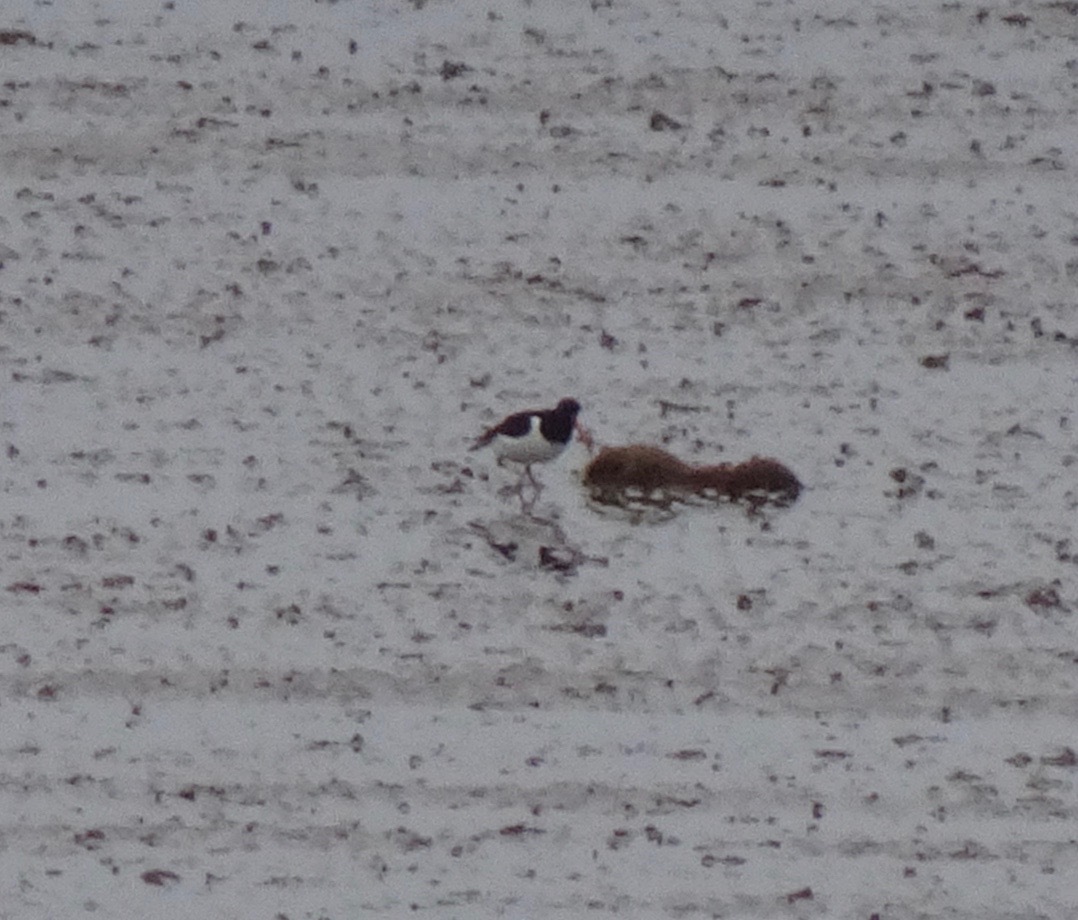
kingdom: Animalia
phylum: Chordata
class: Aves
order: Charadriiformes
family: Haematopodidae
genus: Haematopus
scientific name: Haematopus ostralegus
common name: Eurasian oystercatcher
